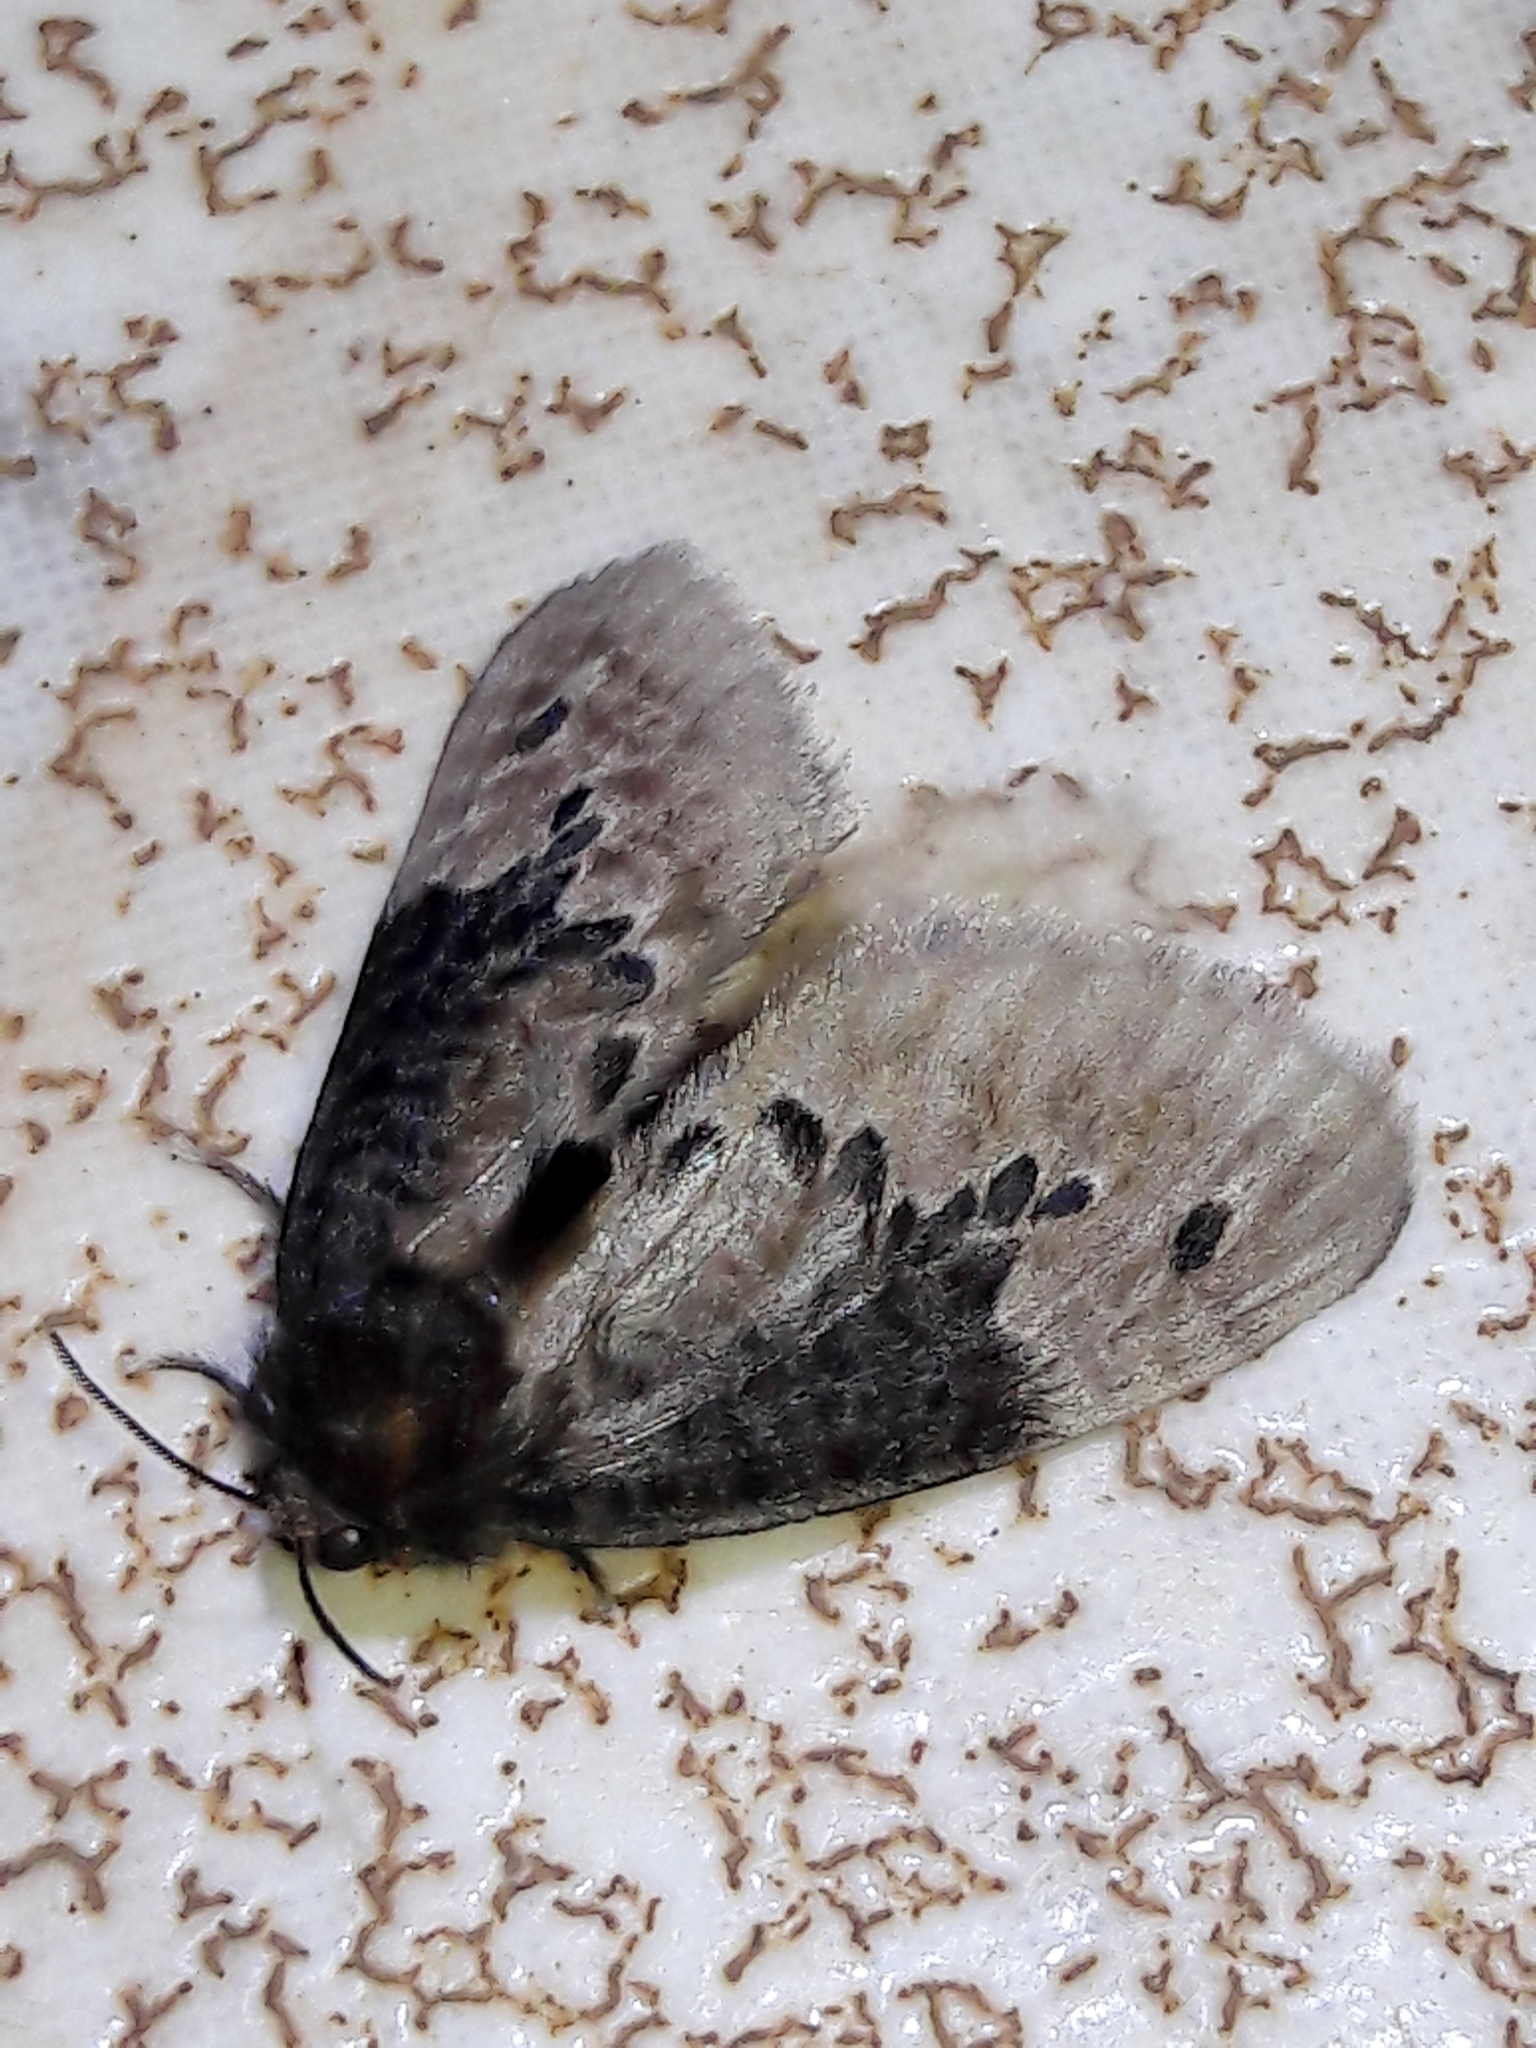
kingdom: Animalia
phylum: Arthropoda
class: Insecta
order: Lepidoptera
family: Megalopygidae
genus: Podalia
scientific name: Podalia dimidiatus
